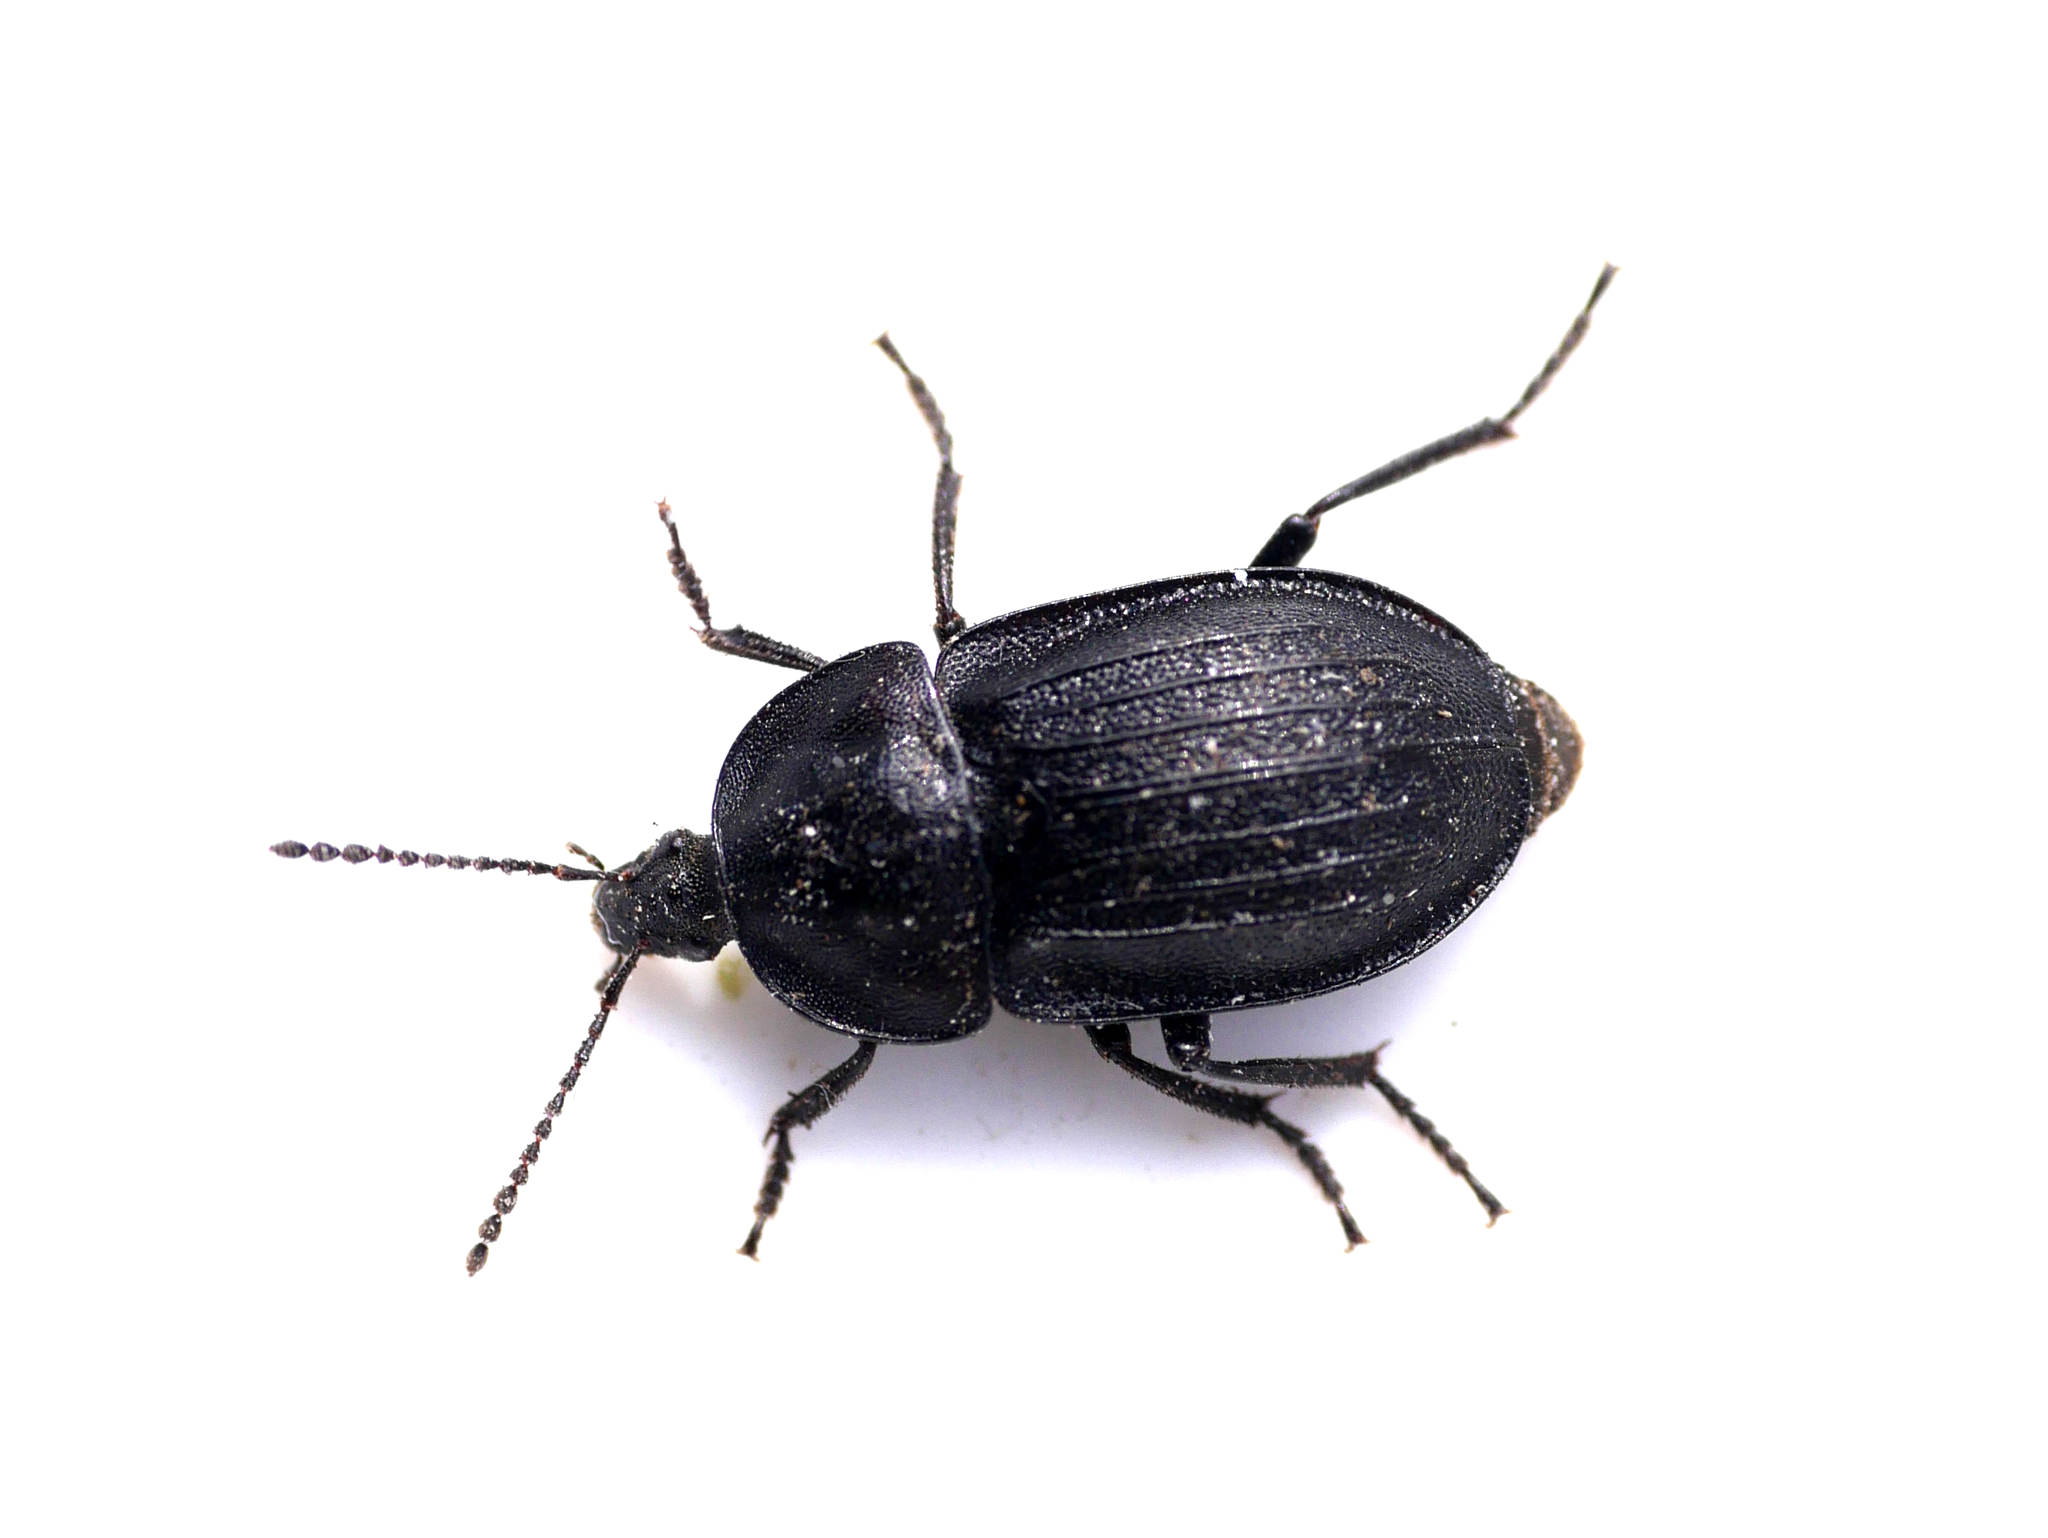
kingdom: Animalia
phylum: Arthropoda
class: Insecta
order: Coleoptera
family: Staphylinidae
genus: Silpha
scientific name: Silpha atrata
